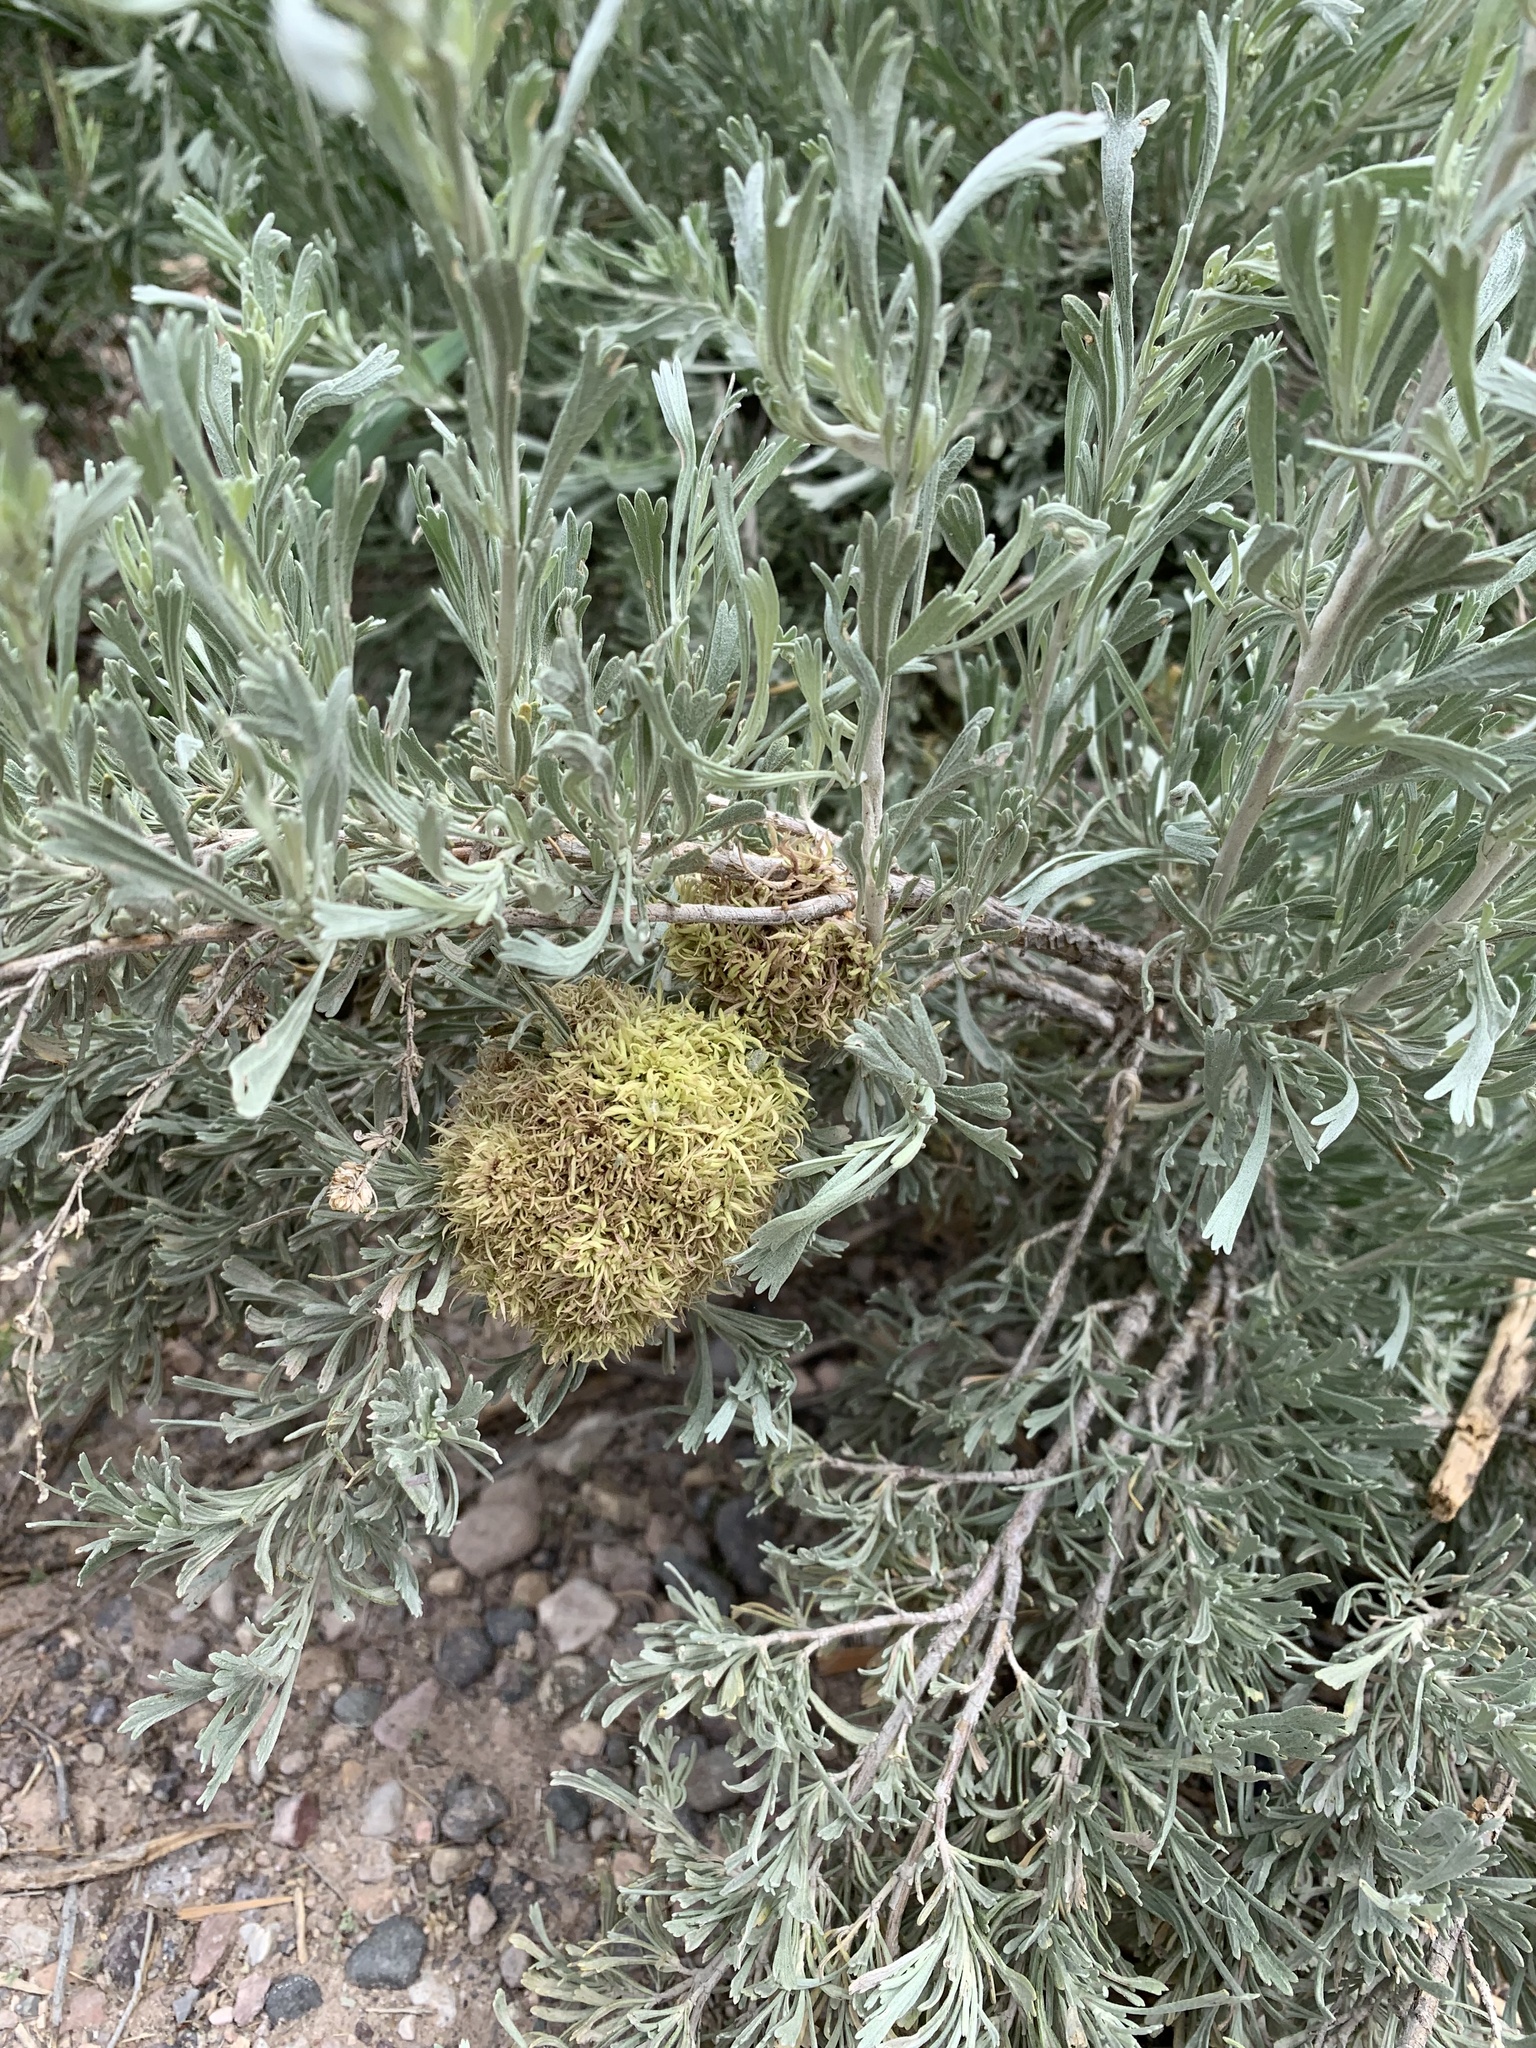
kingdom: Animalia
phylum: Arthropoda
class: Insecta
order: Diptera
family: Cecidomyiidae
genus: Rhopalomyia
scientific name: Rhopalomyia medusa
